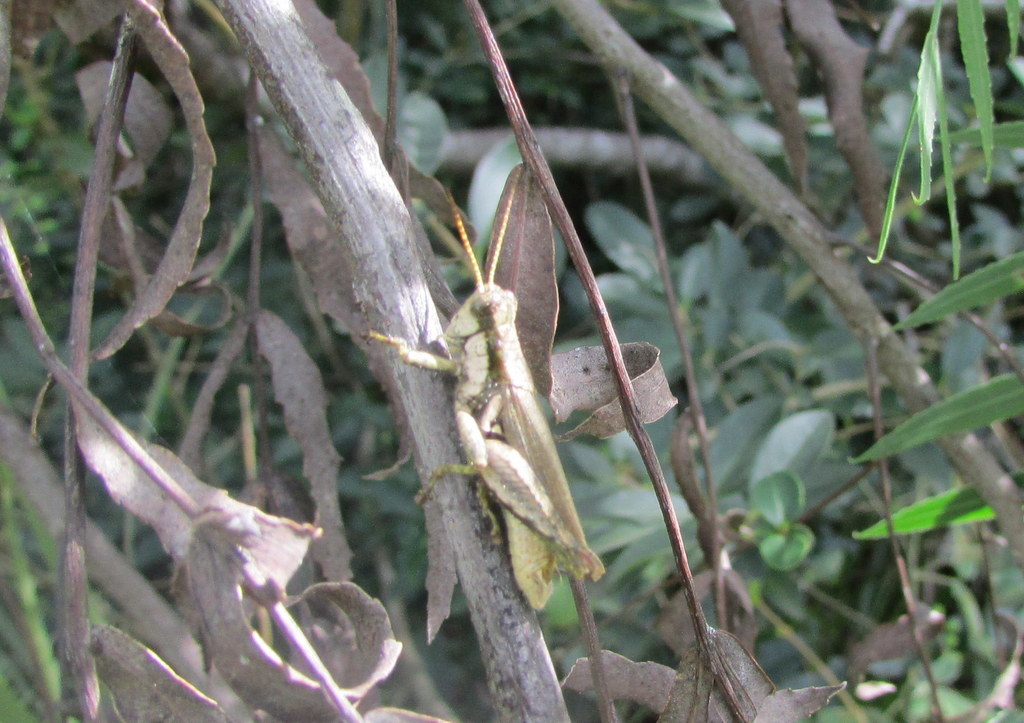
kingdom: Animalia
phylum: Arthropoda
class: Insecta
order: Orthoptera
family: Acrididae
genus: Ronderosia
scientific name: Ronderosia bergii
